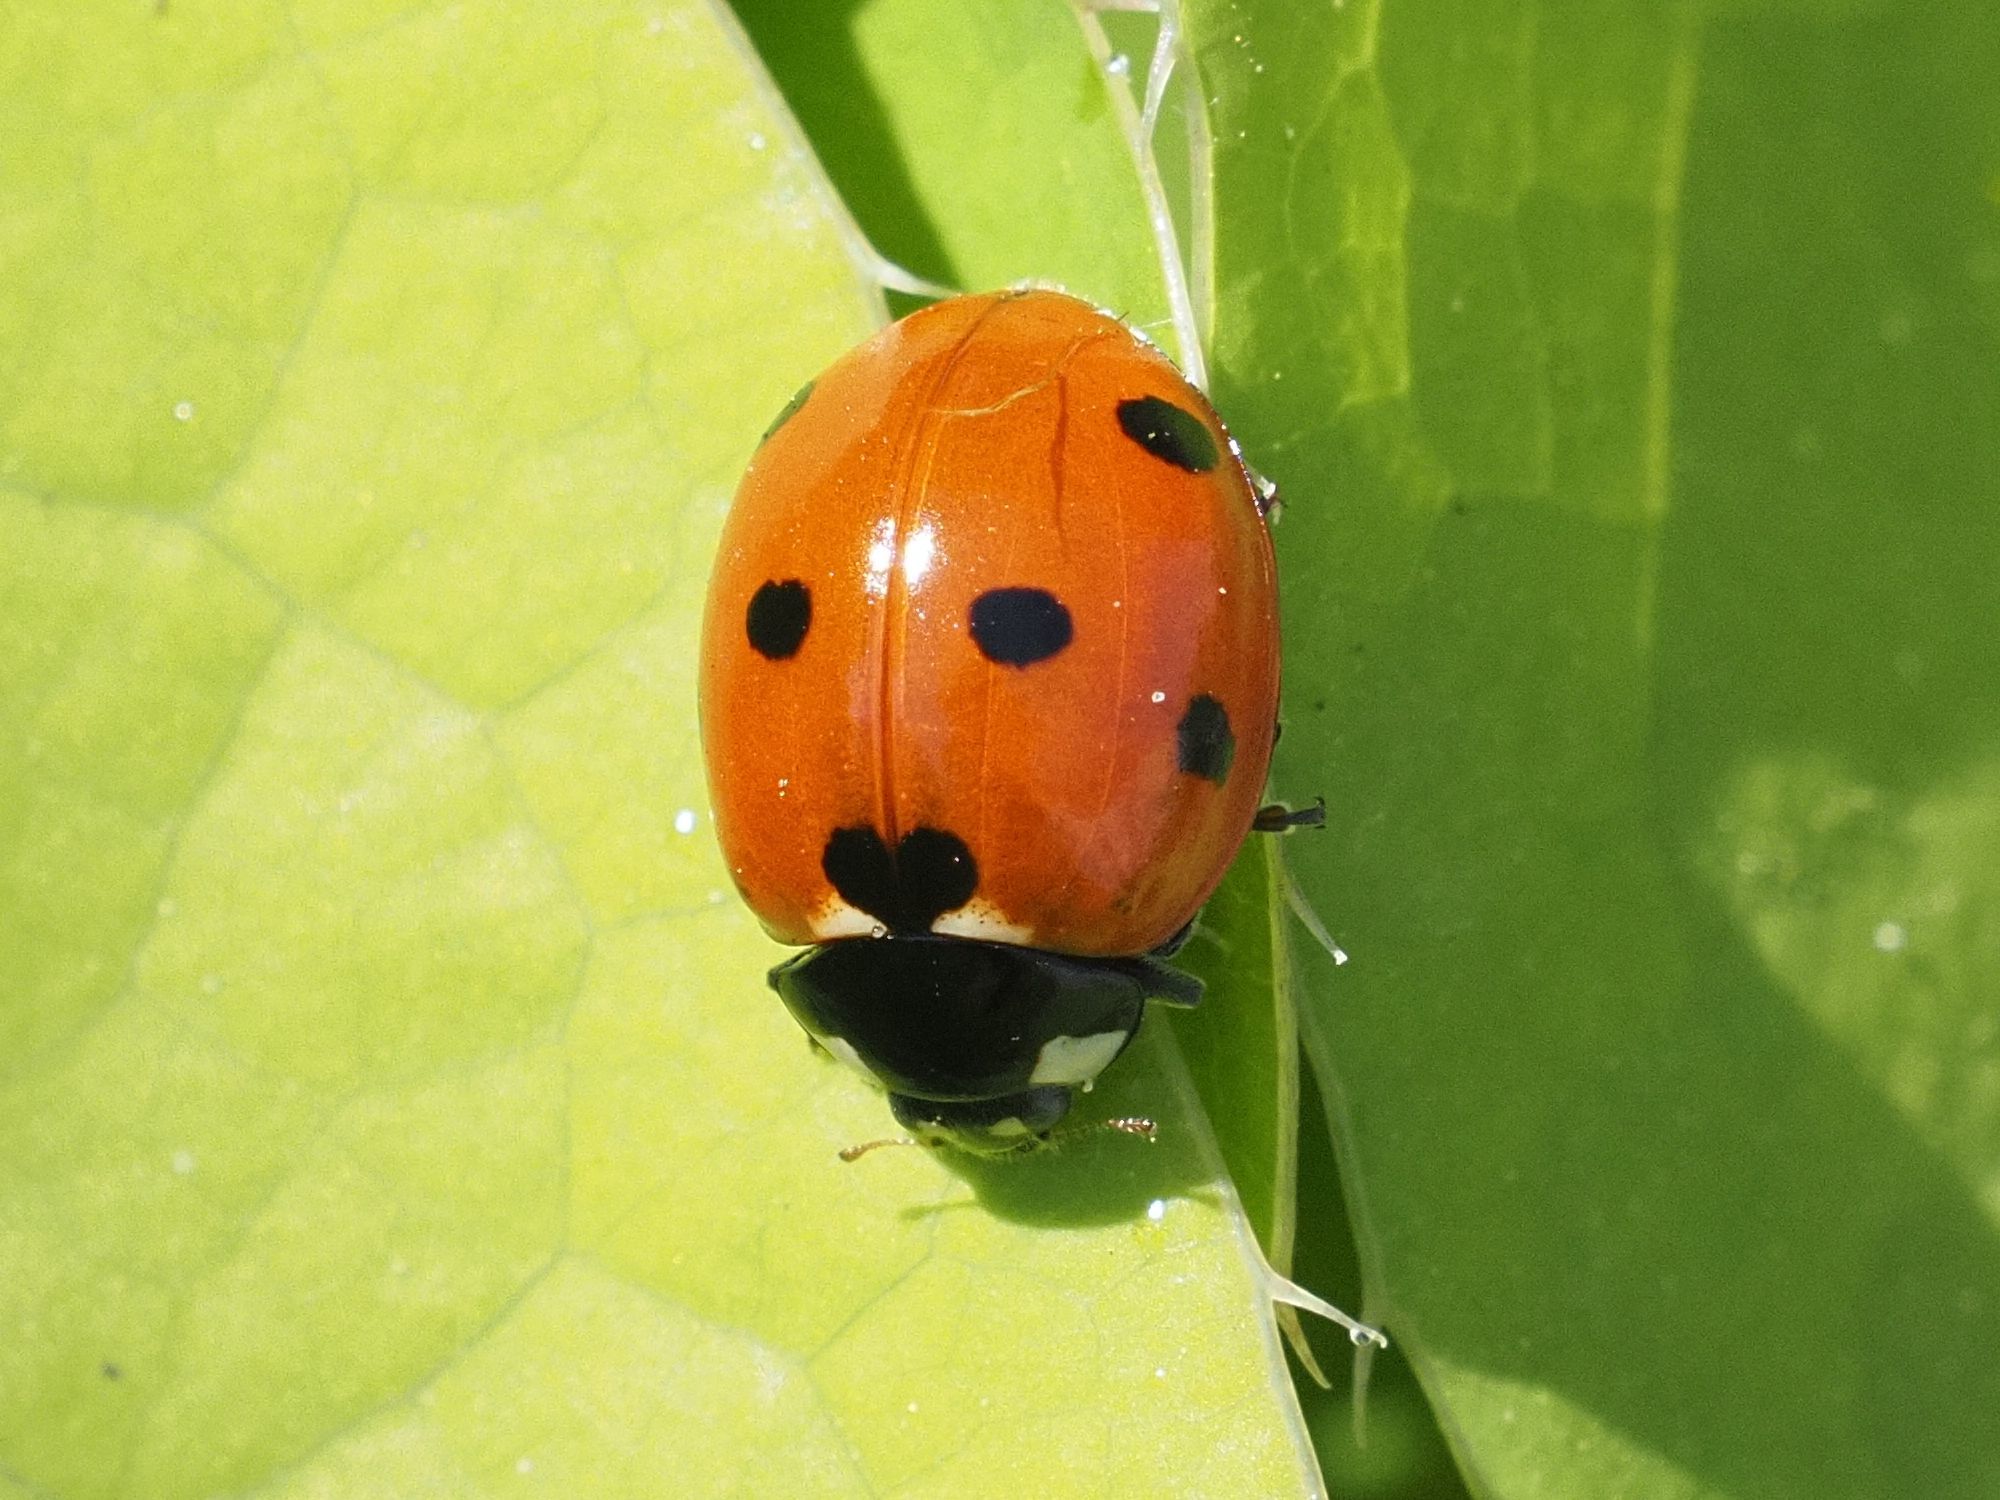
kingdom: Animalia
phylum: Arthropoda
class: Insecta
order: Coleoptera
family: Coccinellidae
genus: Coccinella
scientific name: Coccinella septempunctata
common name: Sevenspotted lady beetle
